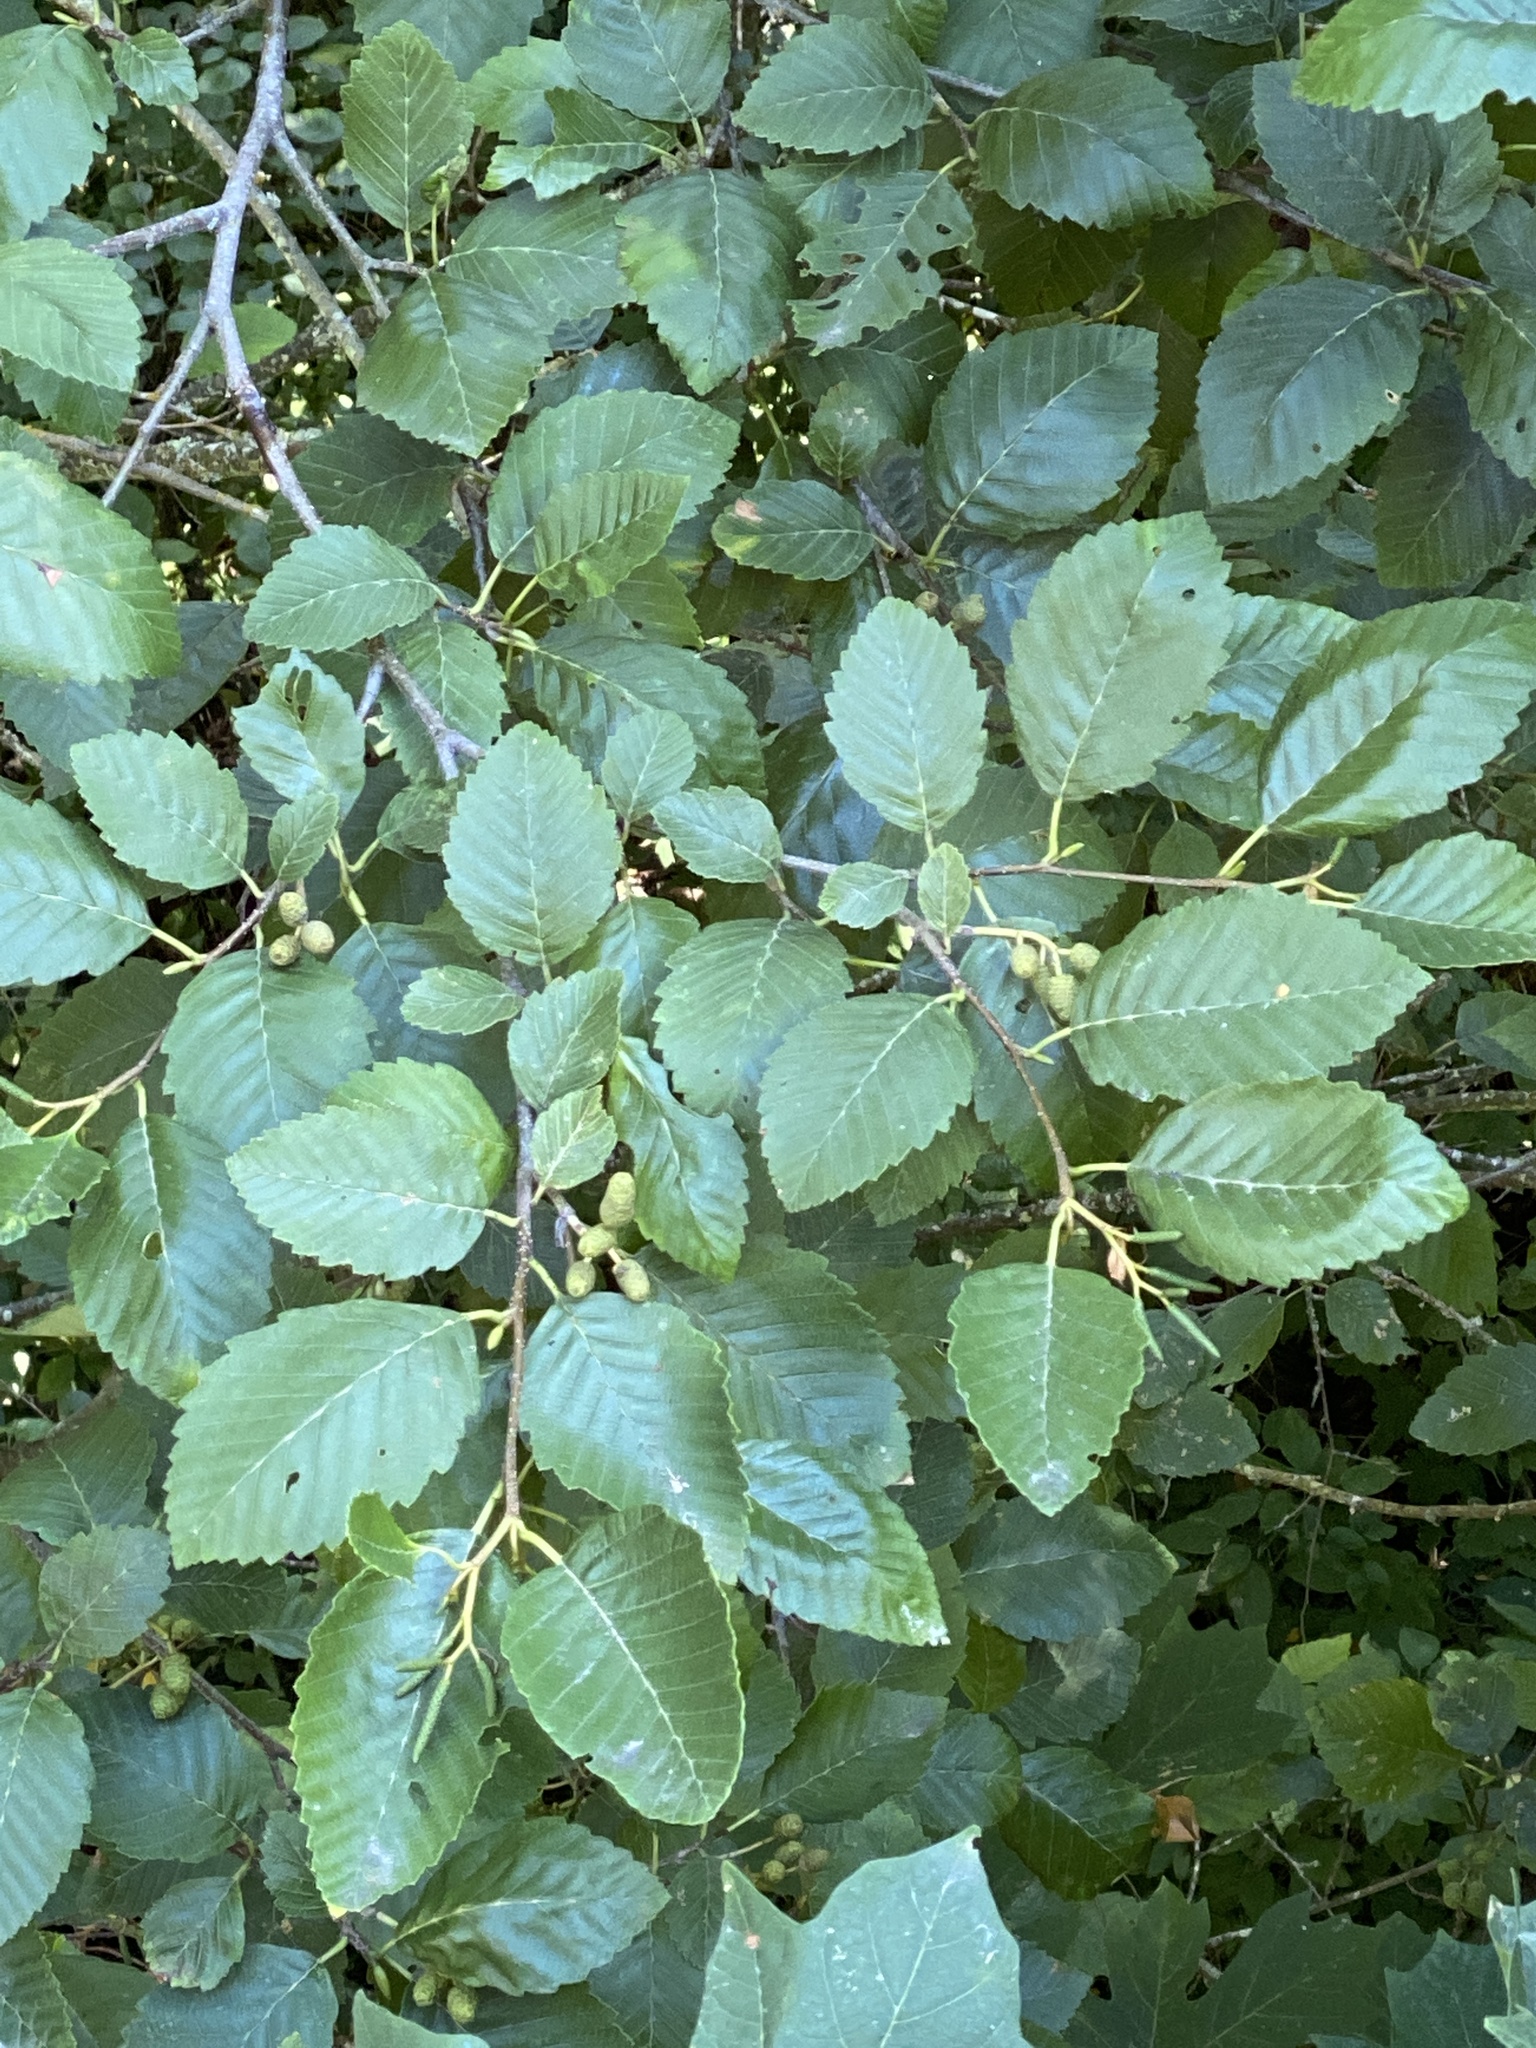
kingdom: Plantae
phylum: Tracheophyta
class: Magnoliopsida
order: Fagales
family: Betulaceae
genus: Alnus
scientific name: Alnus rubra
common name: Red alder
